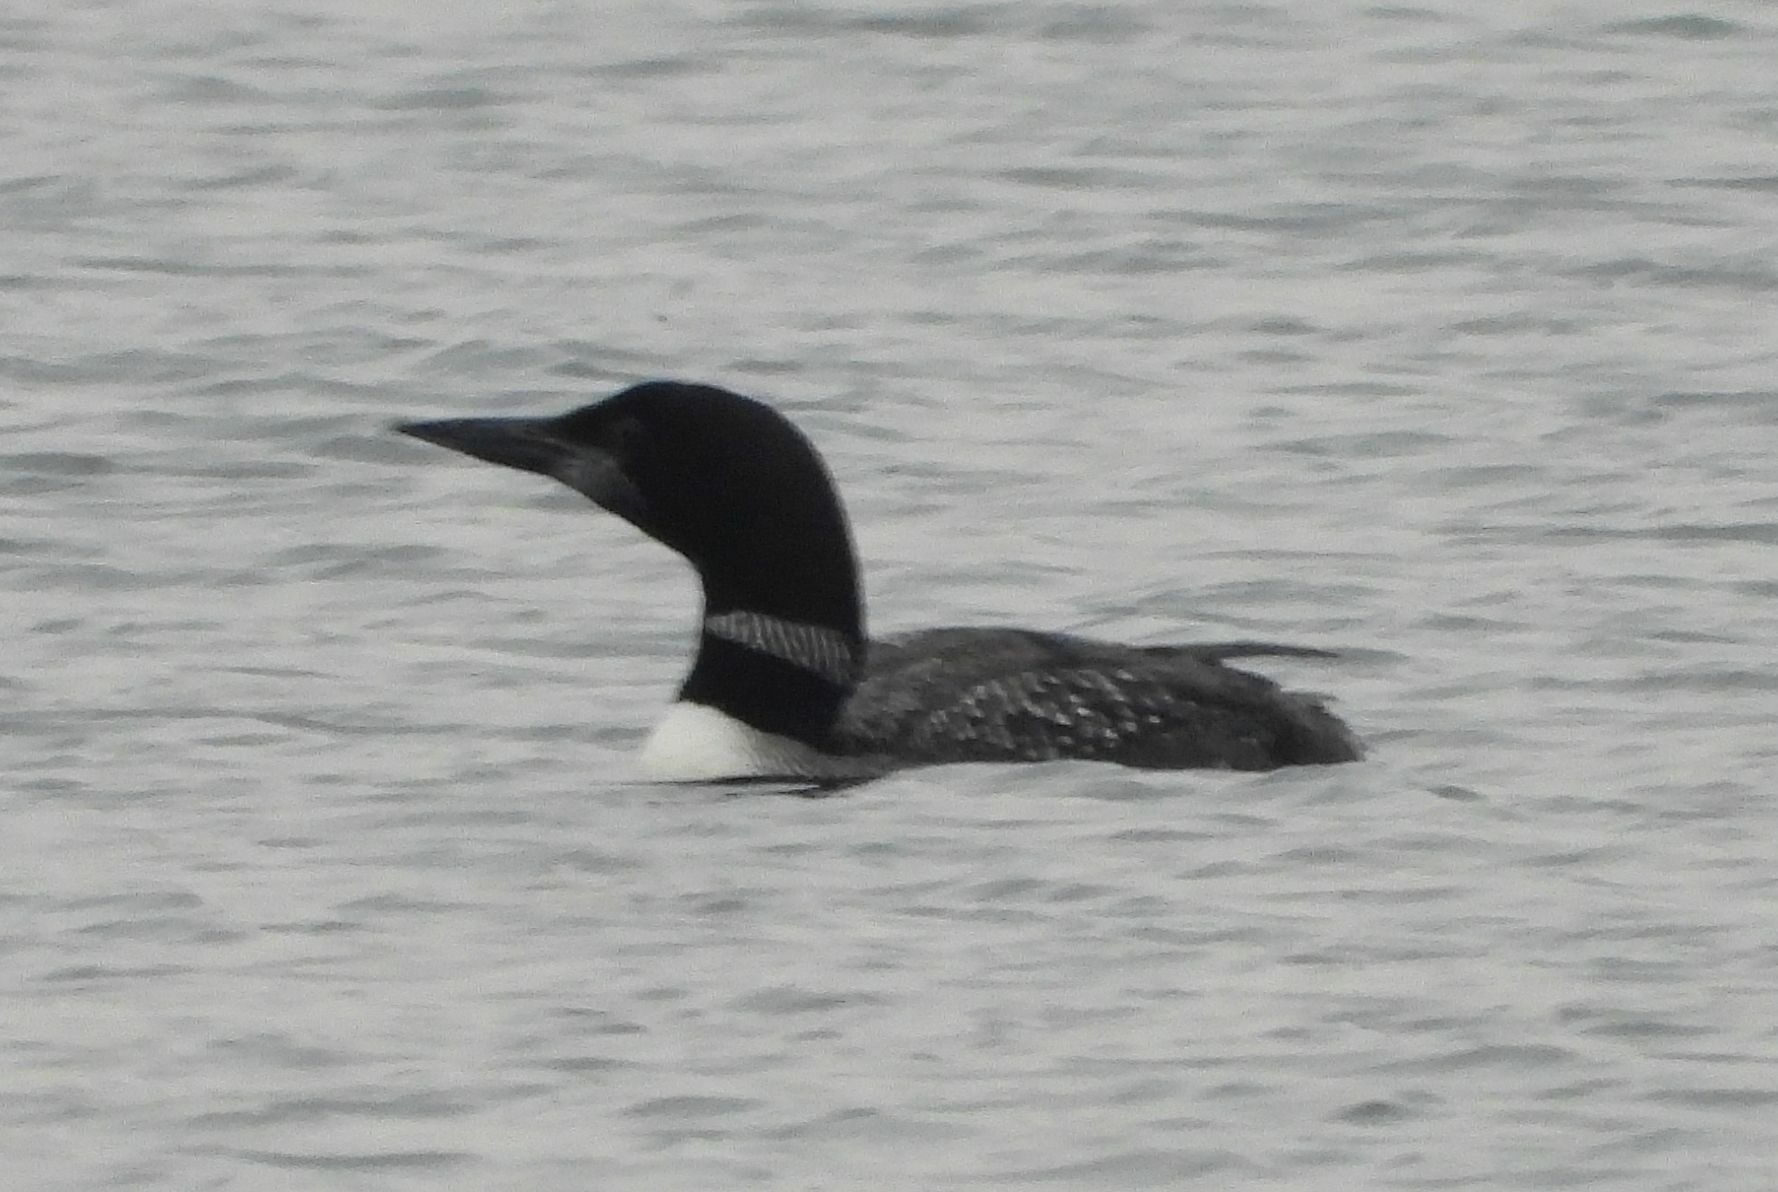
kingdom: Animalia
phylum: Chordata
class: Aves
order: Gaviiformes
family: Gaviidae
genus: Gavia
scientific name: Gavia immer
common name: Common loon
